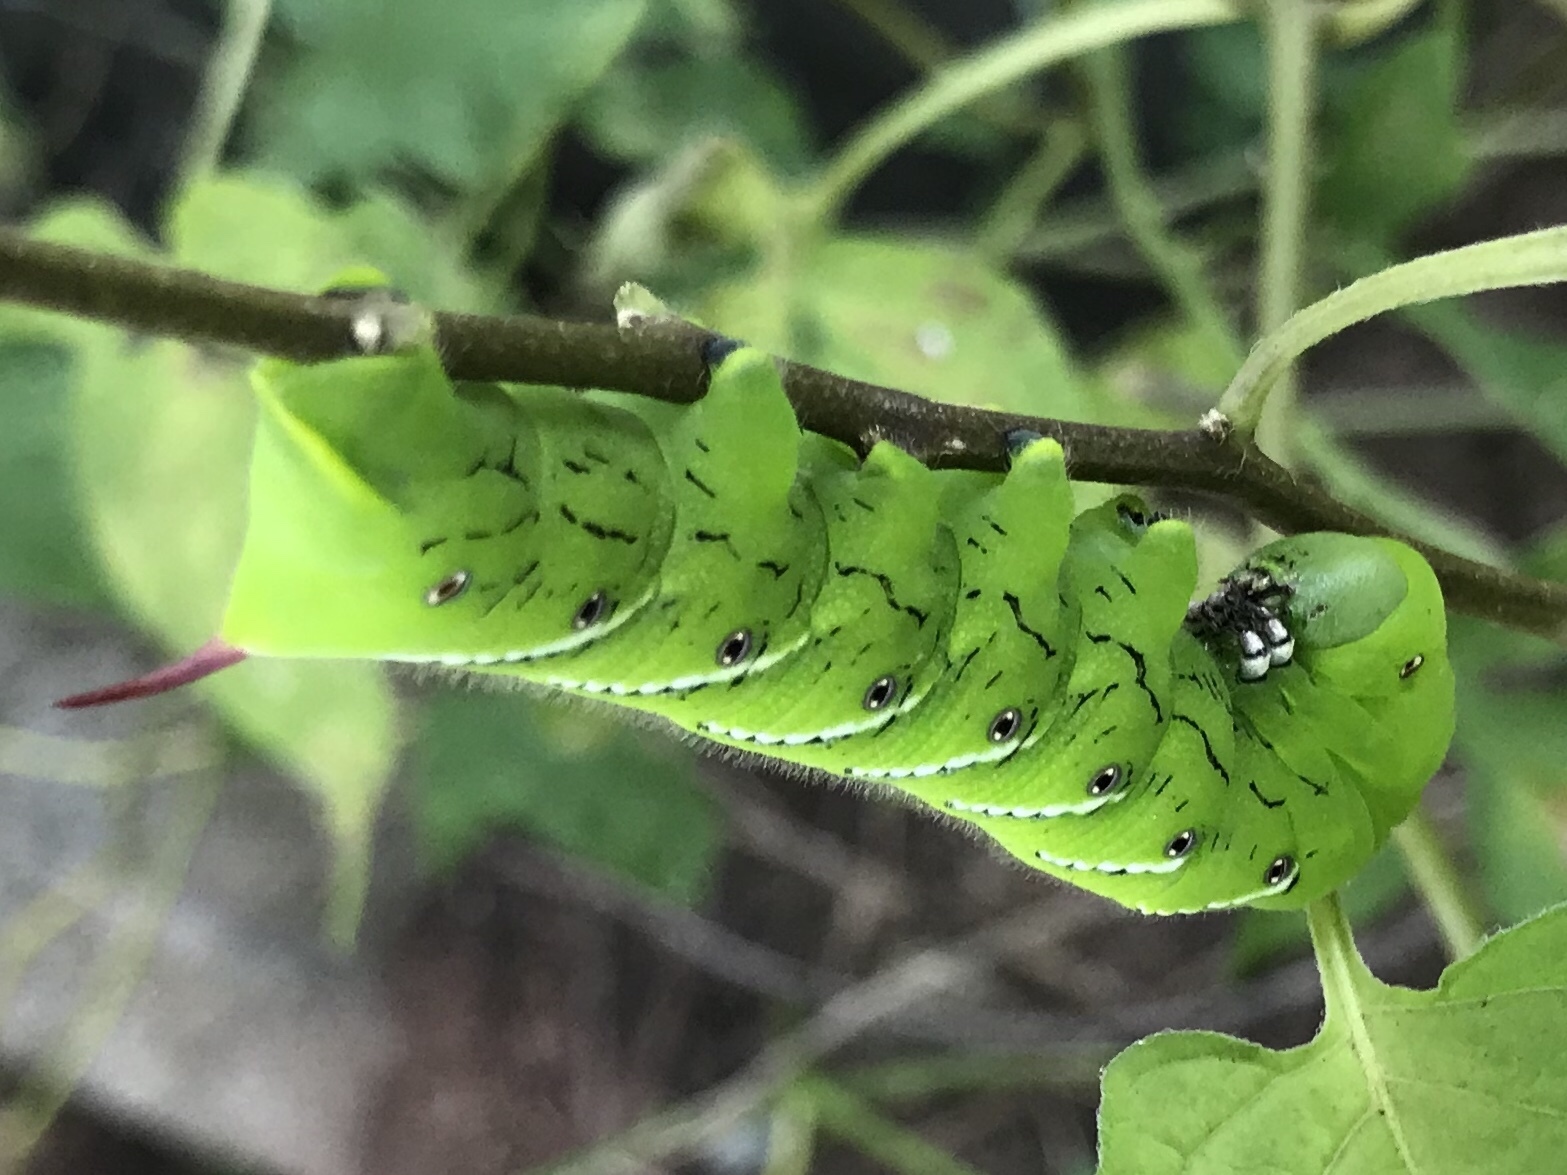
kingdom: Animalia
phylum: Arthropoda
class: Insecta
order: Lepidoptera
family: Sphingidae
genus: Manduca
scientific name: Manduca sexta
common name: Carolina sphinx
